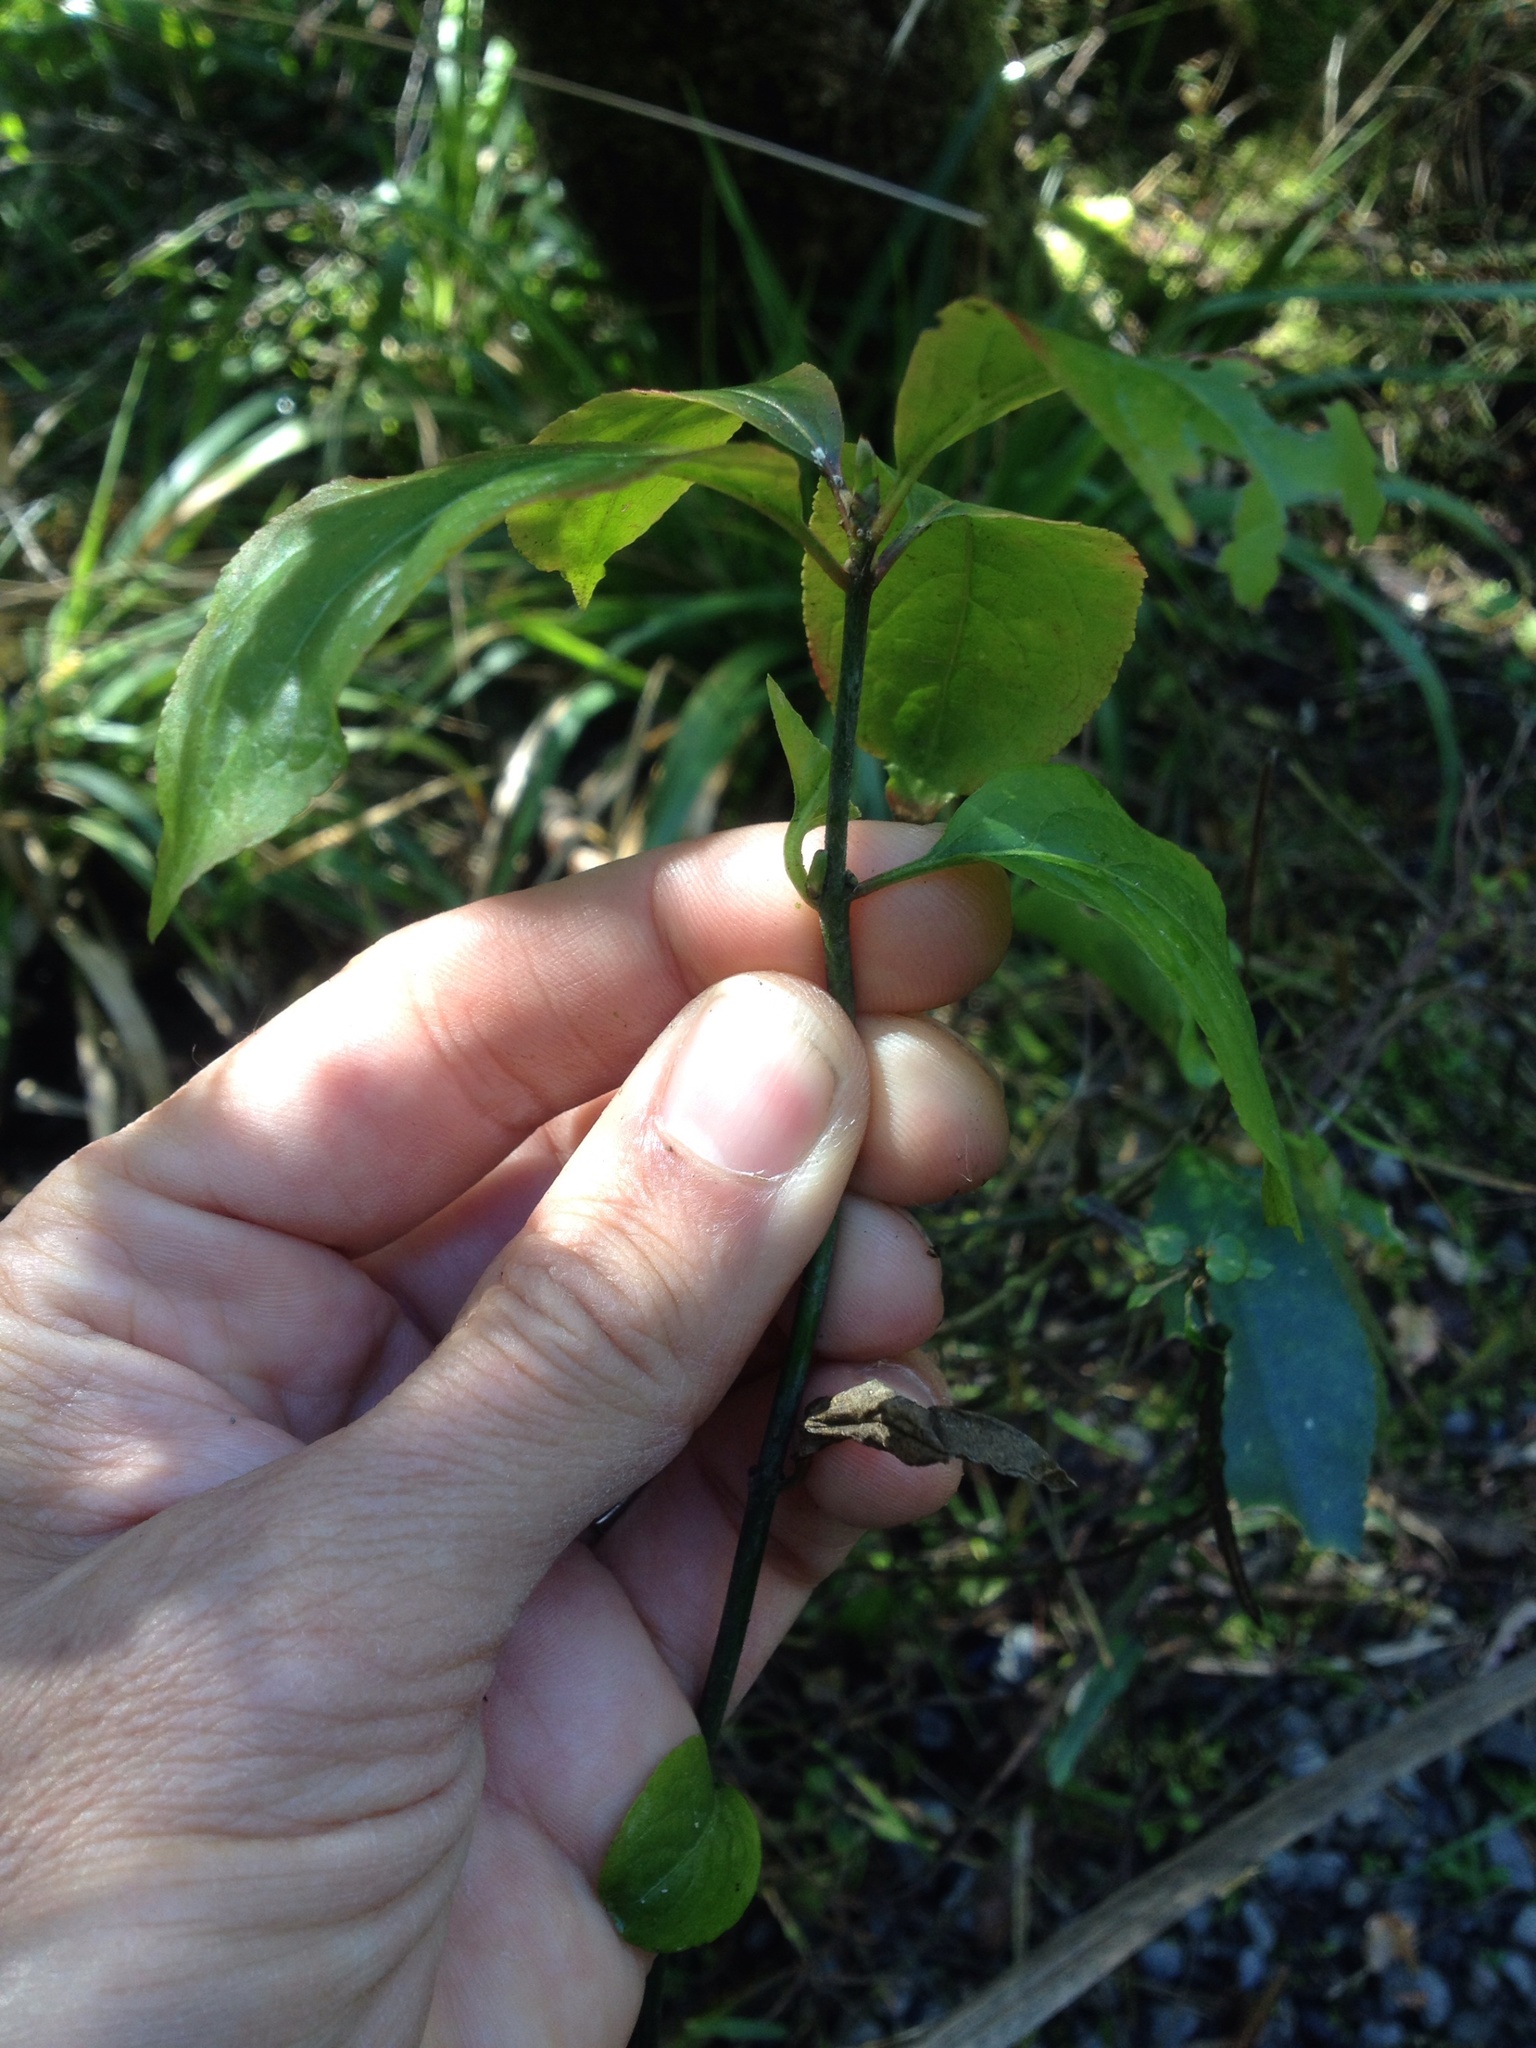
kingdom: Plantae
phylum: Tracheophyta
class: Magnoliopsida
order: Celastrales
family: Celastraceae
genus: Euonymus
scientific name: Euonymus europaeus
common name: Spindle
